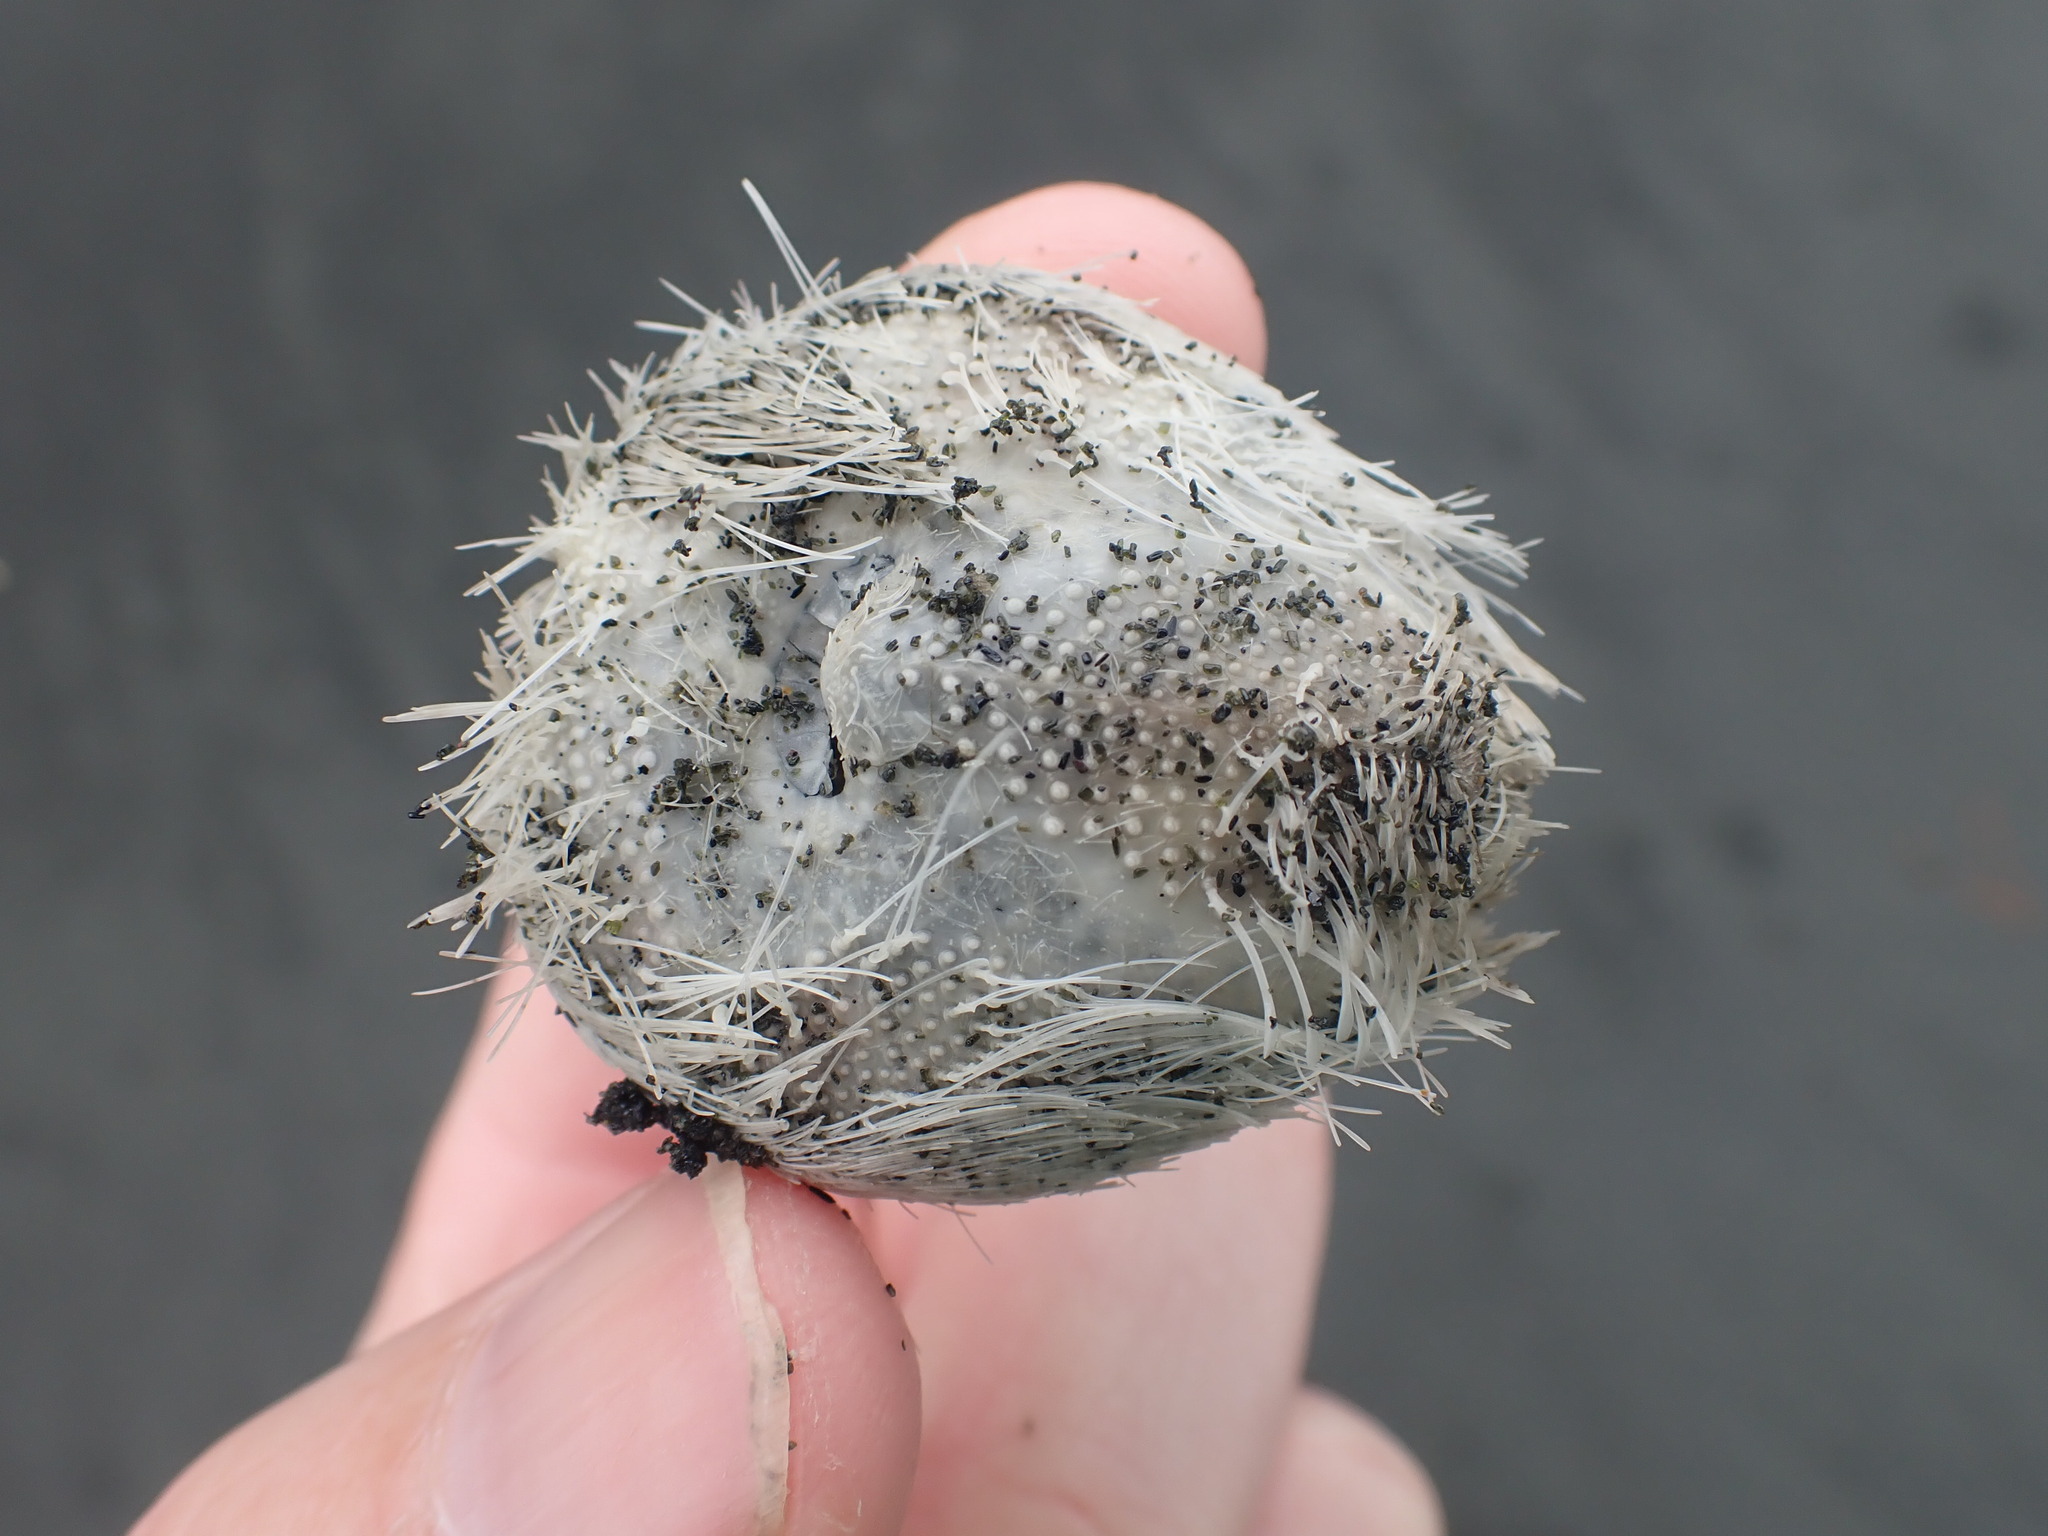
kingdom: Animalia
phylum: Echinodermata
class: Echinoidea
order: Spatangoida
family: Loveniidae
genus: Echinocardium
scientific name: Echinocardium cordatum
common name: Heart-urchin
